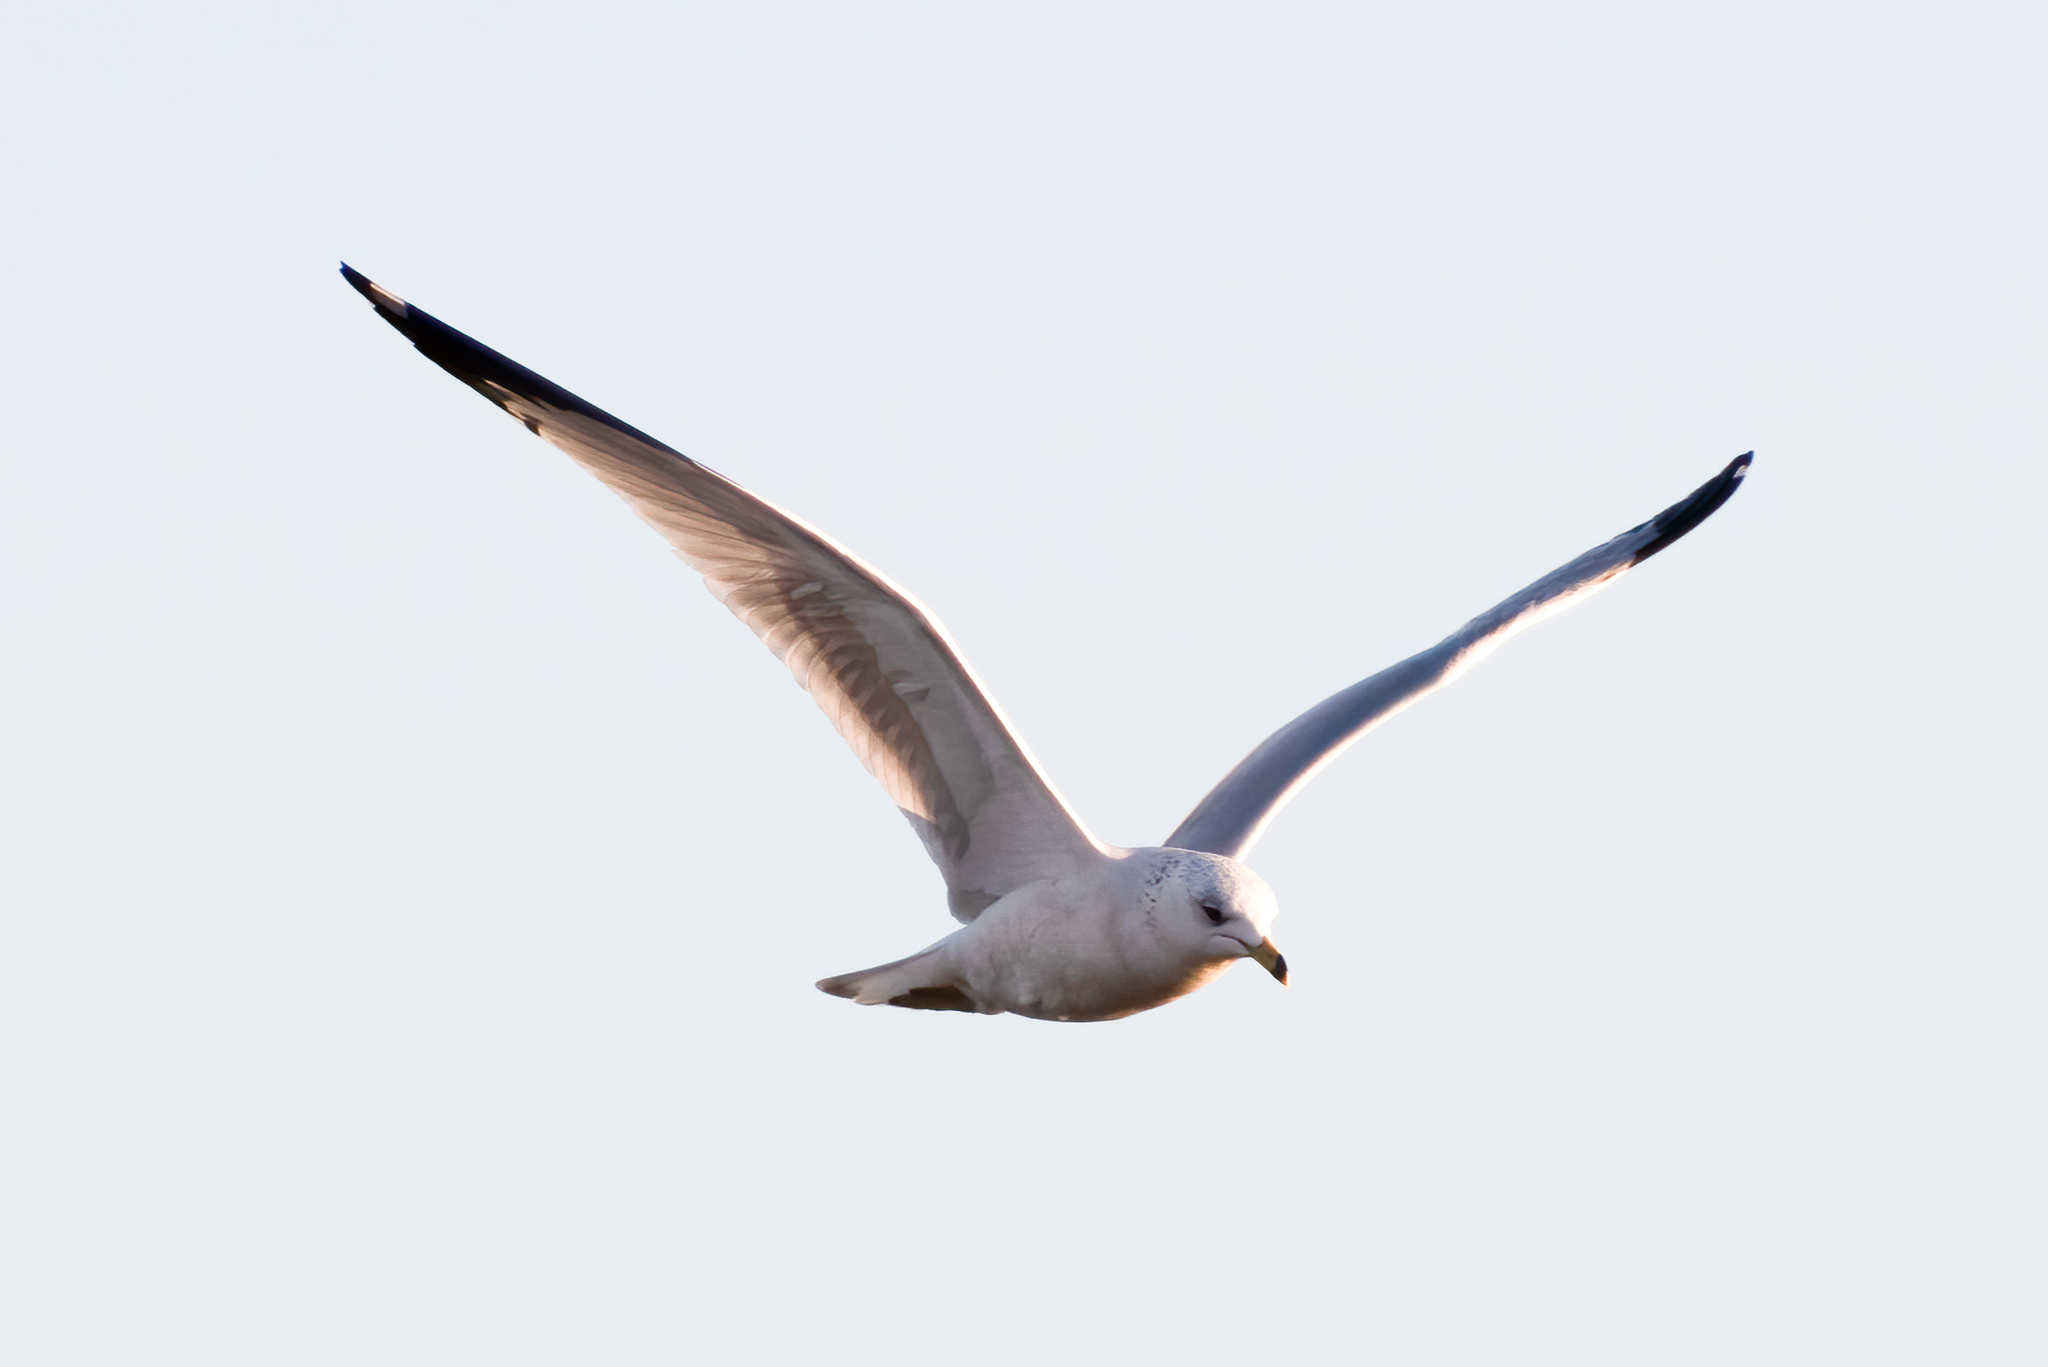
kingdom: Animalia
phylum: Chordata
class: Aves
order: Charadriiformes
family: Laridae
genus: Larus
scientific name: Larus delawarensis
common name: Ring-billed gull
